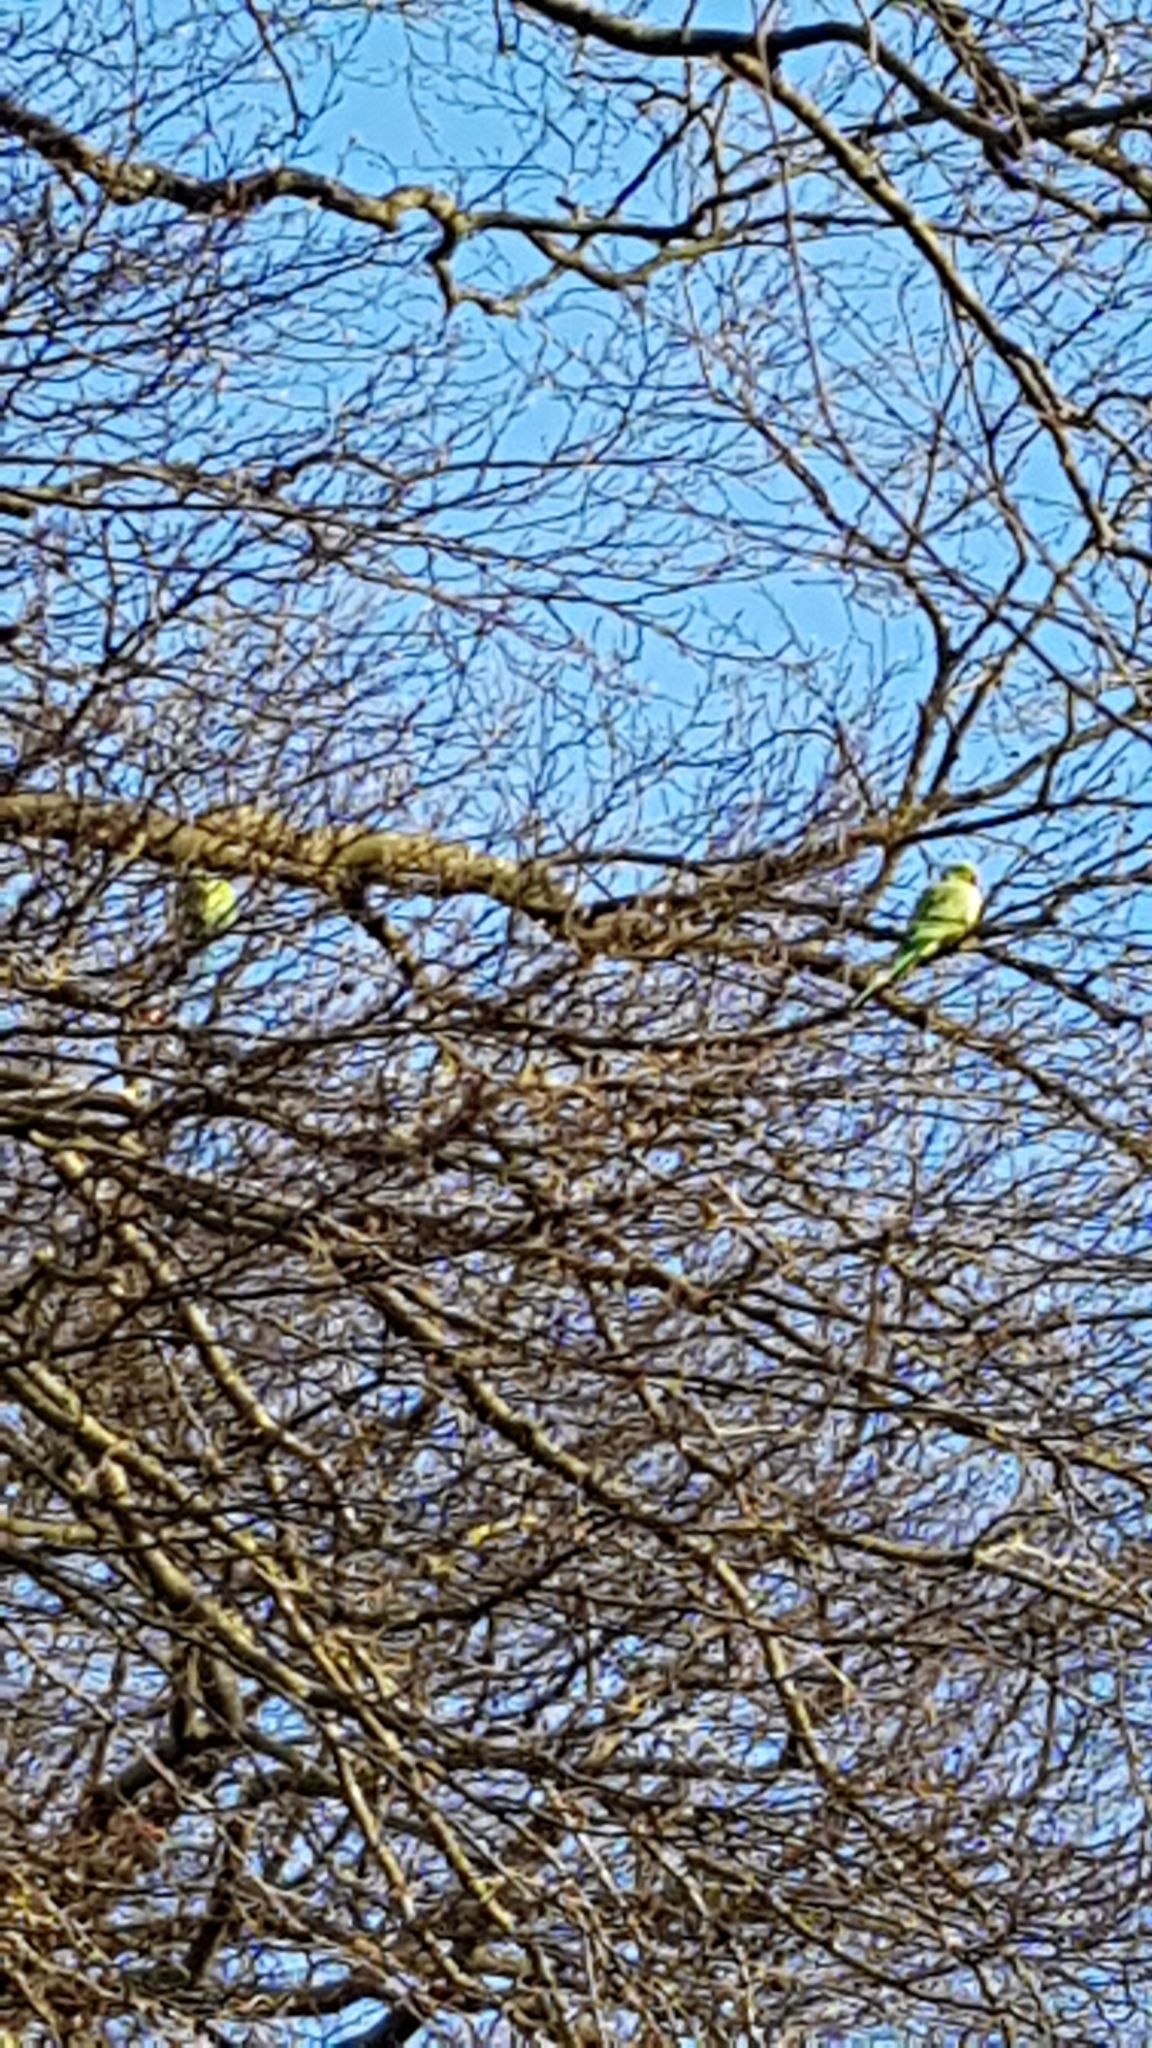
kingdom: Animalia
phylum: Chordata
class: Aves
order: Psittaciformes
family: Psittacidae
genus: Psittacula
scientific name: Psittacula krameri
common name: Rose-ringed parakeet
